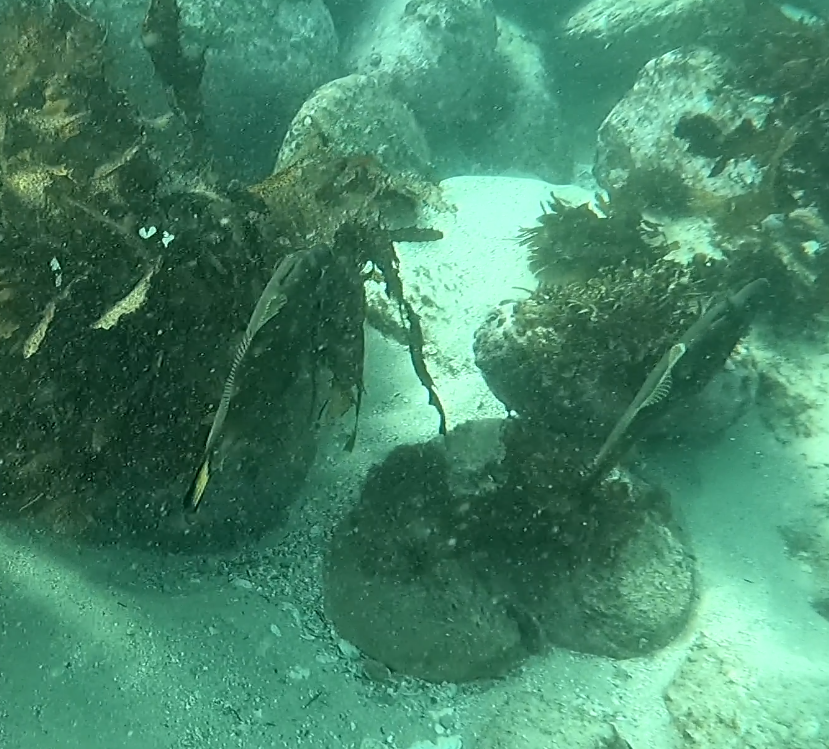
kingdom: Animalia
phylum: Chordata
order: Tetraodontiformes
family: Monacanthidae
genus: Meuschenia
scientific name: Meuschenia flavolineata
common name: Yellowstriped leatherjacket
